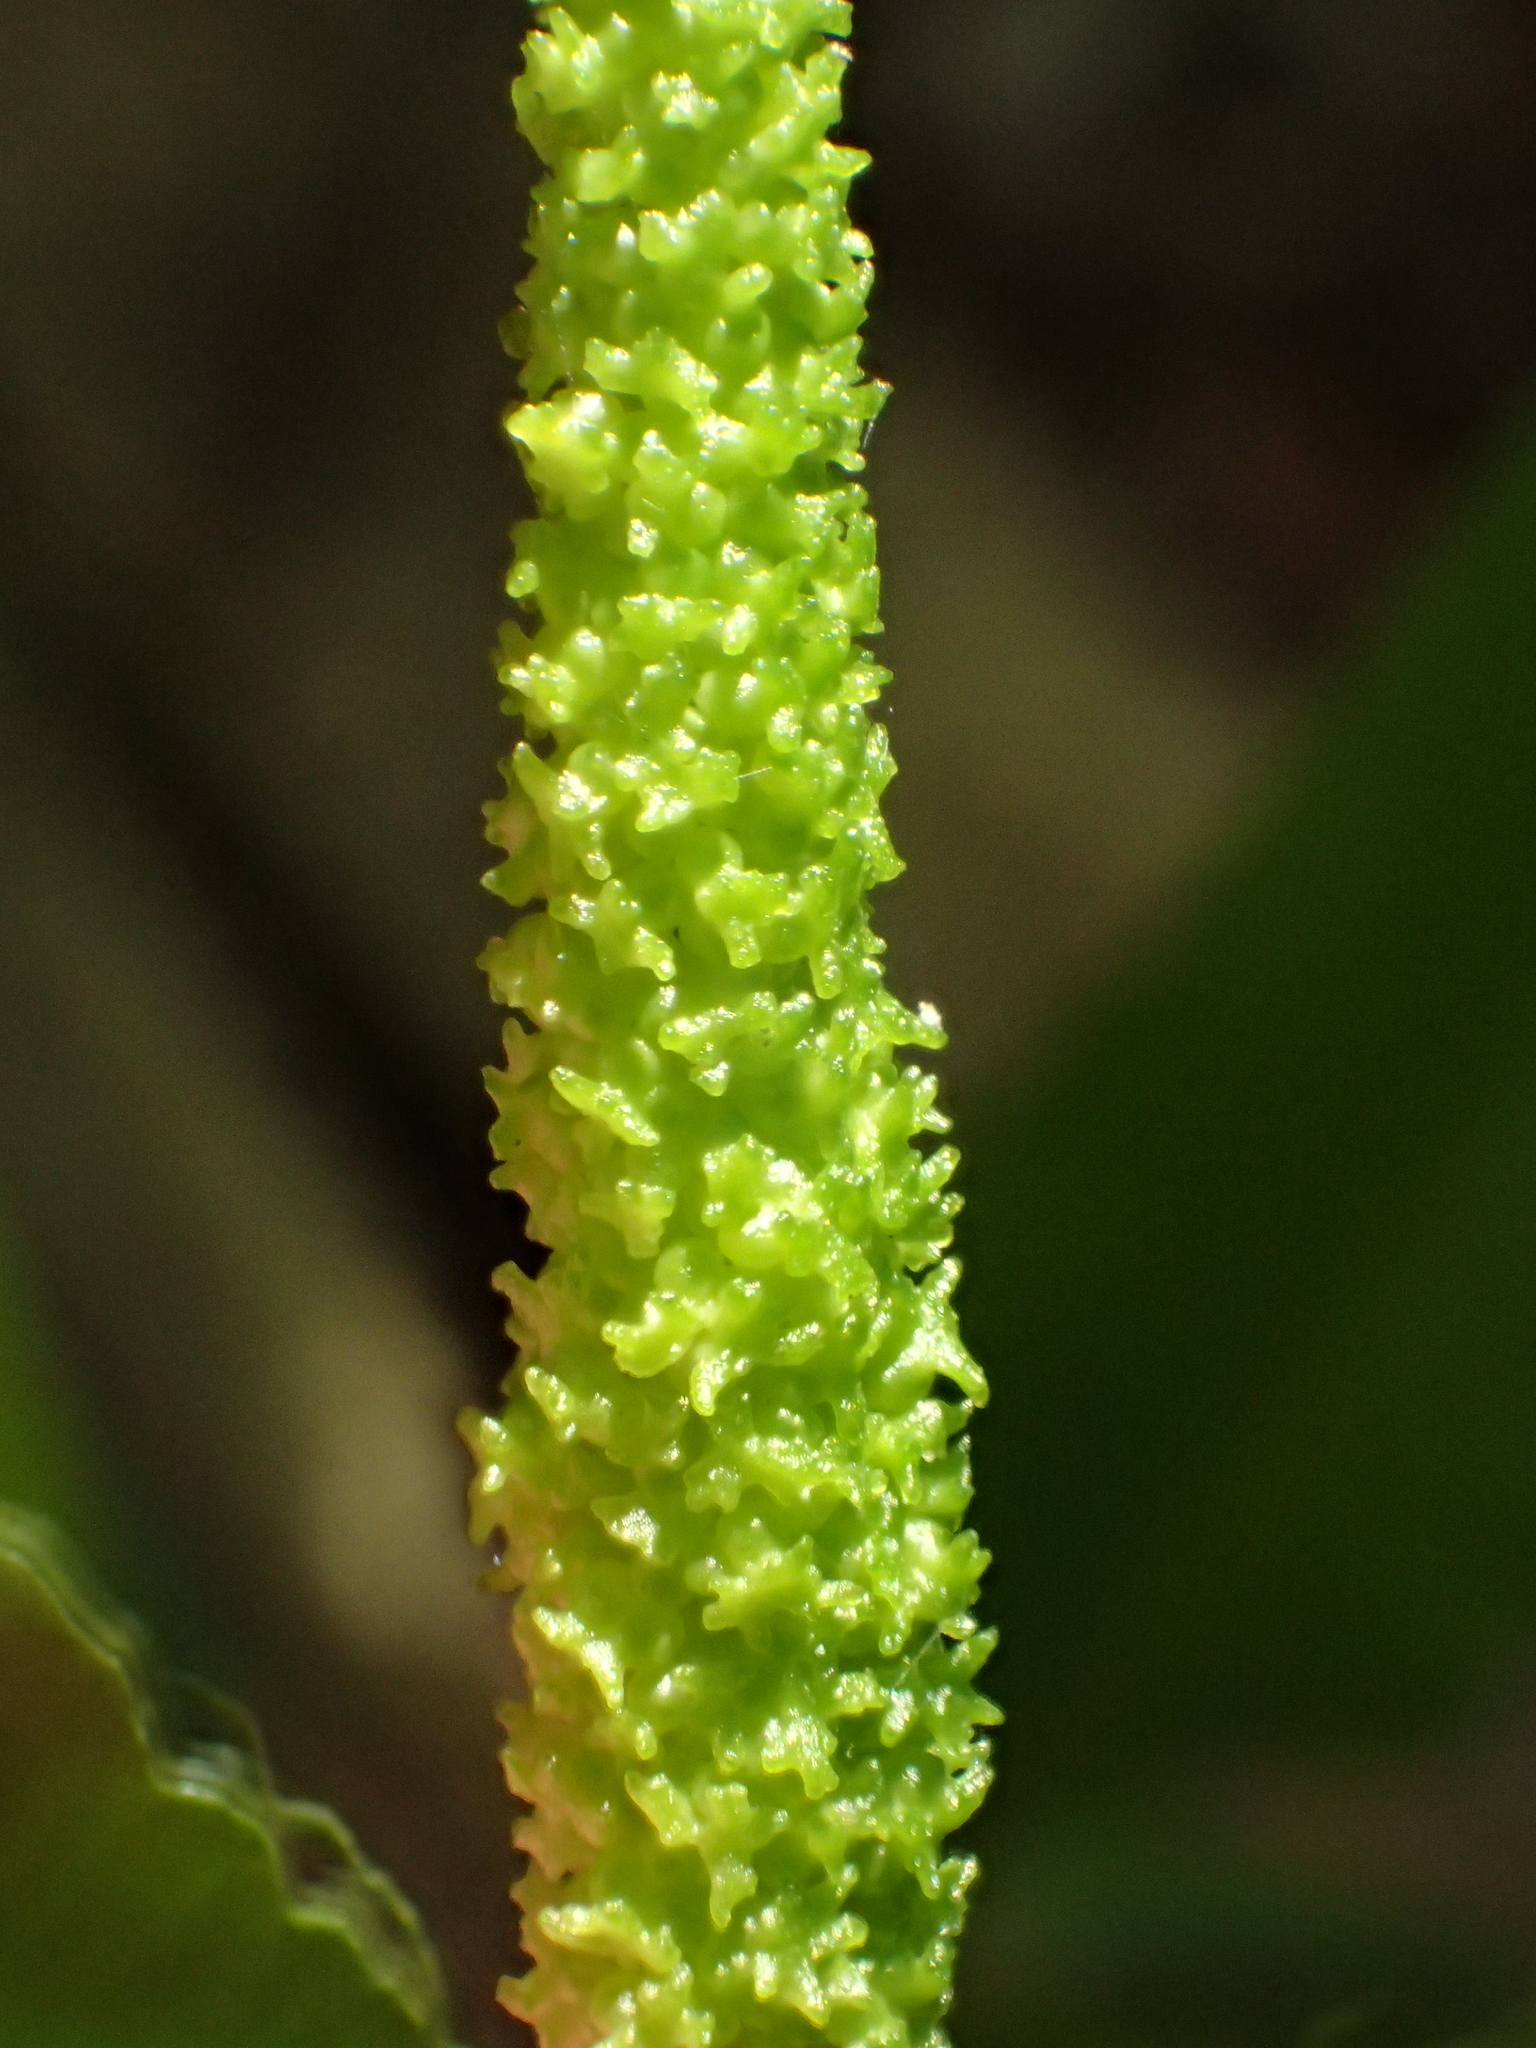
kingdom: Plantae
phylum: Tracheophyta
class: Polypodiopsida
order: Ophioglossales
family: Ophioglossaceae
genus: Helminthostachys
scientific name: Helminthostachys zeylanica
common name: Flowering fern
